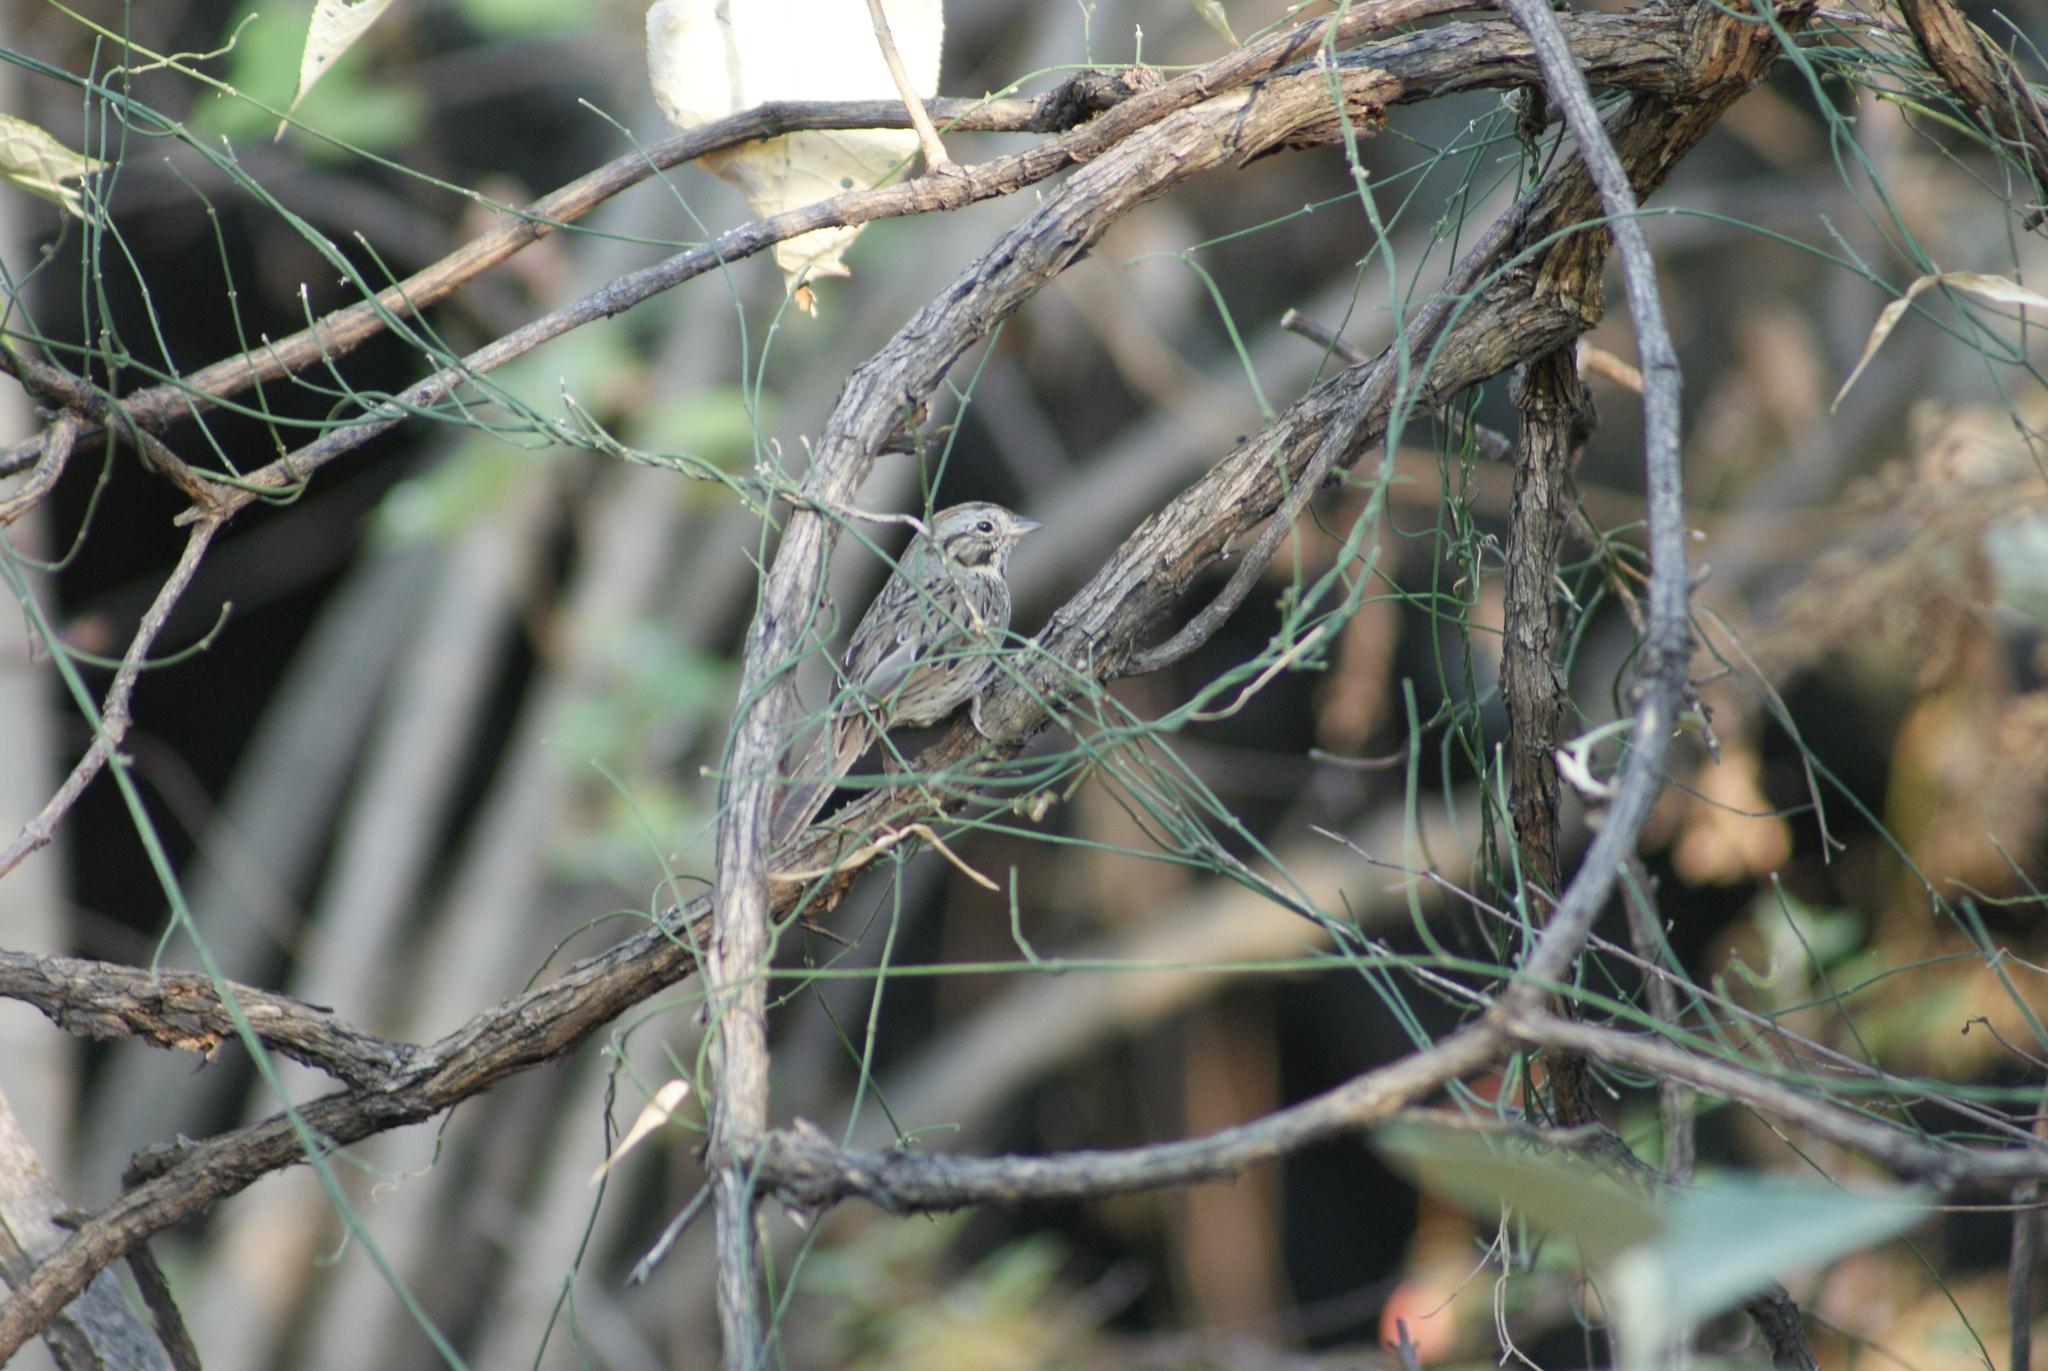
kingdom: Animalia
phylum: Chordata
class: Aves
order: Passeriformes
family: Passerellidae
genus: Melospiza
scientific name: Melospiza lincolnii
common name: Lincoln's sparrow
